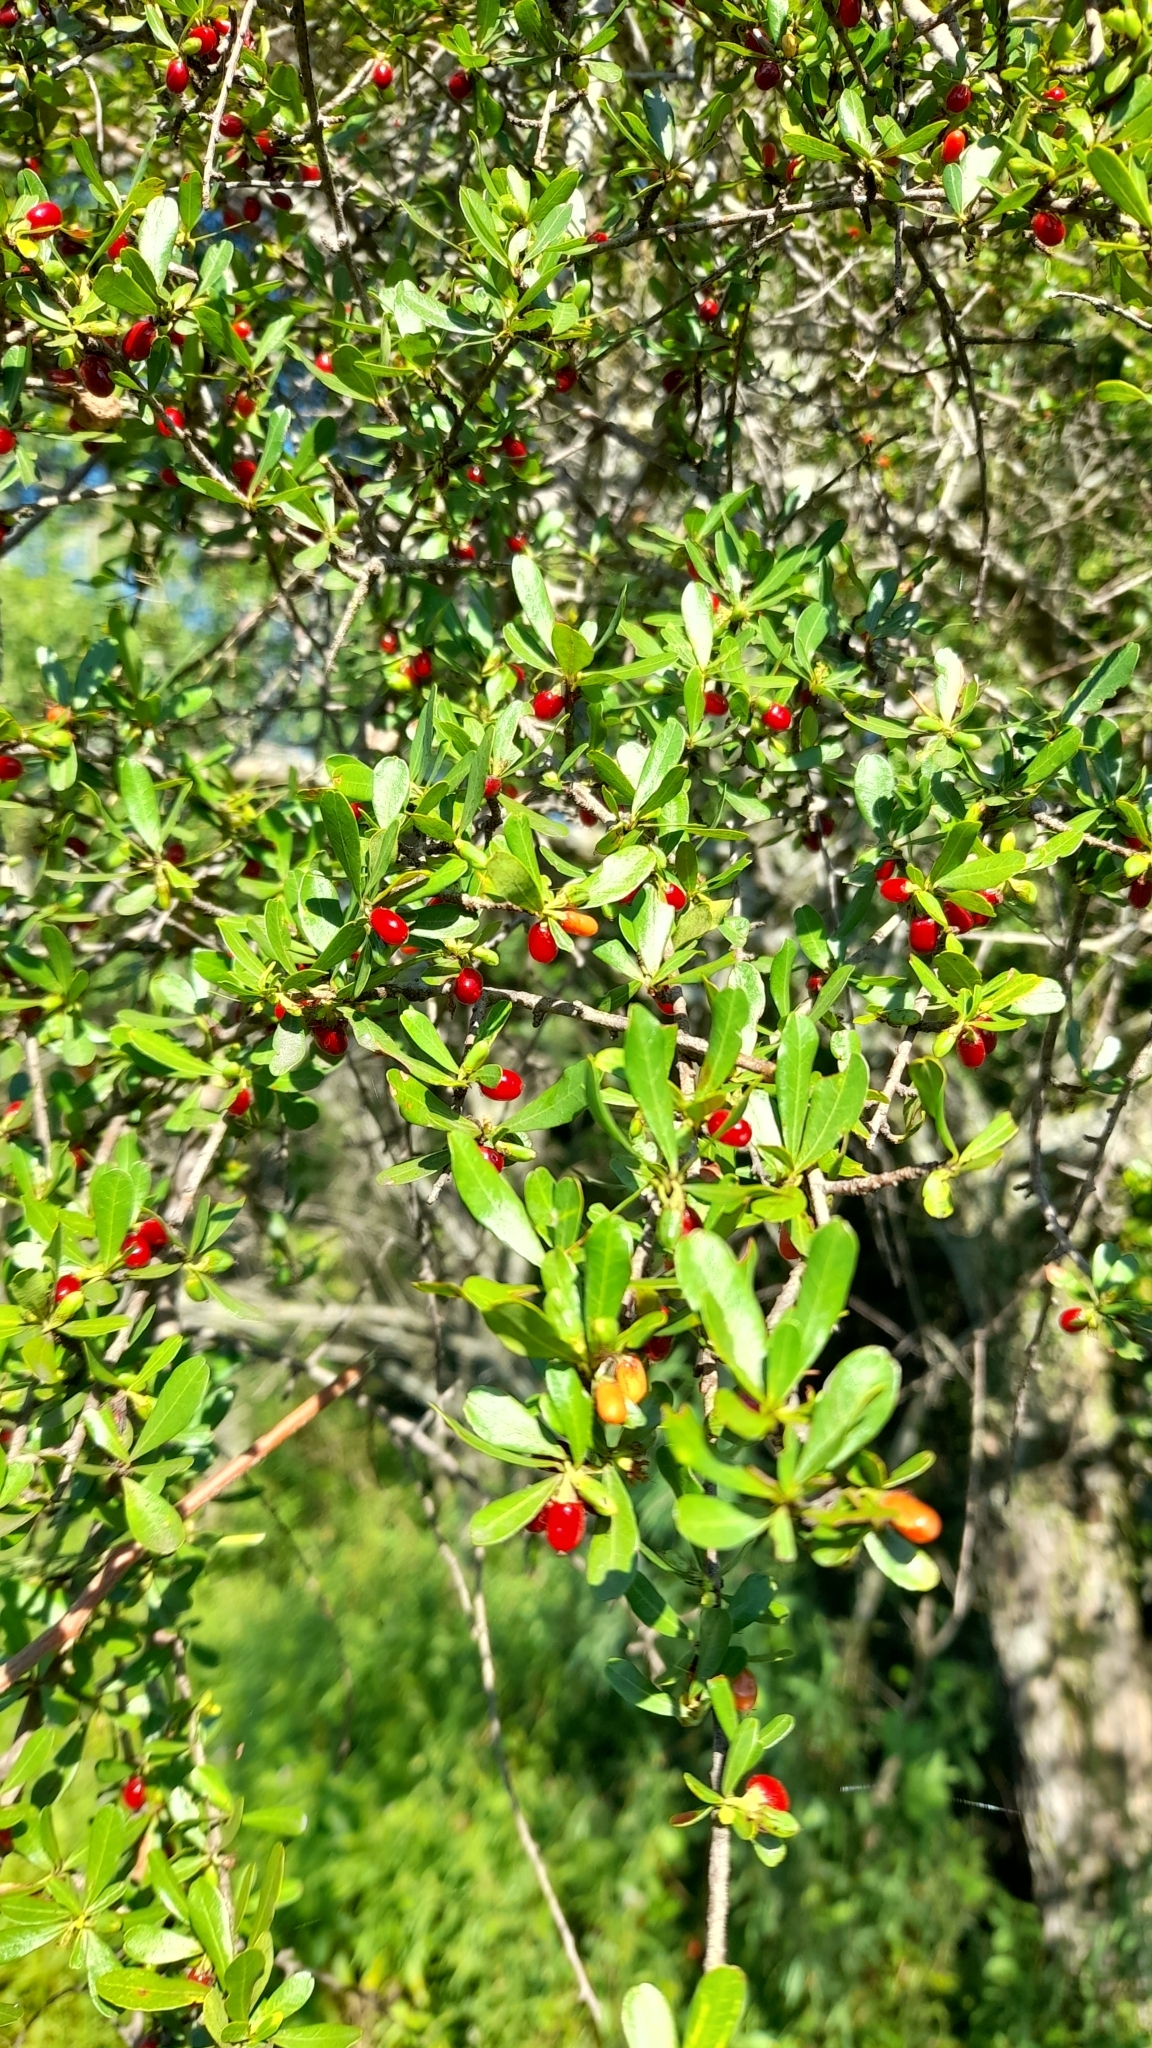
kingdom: Plantae
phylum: Tracheophyta
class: Magnoliopsida
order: Malpighiales
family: Erythroxylaceae
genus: Erythroxylum
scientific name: Erythroxylum cuneifolium
